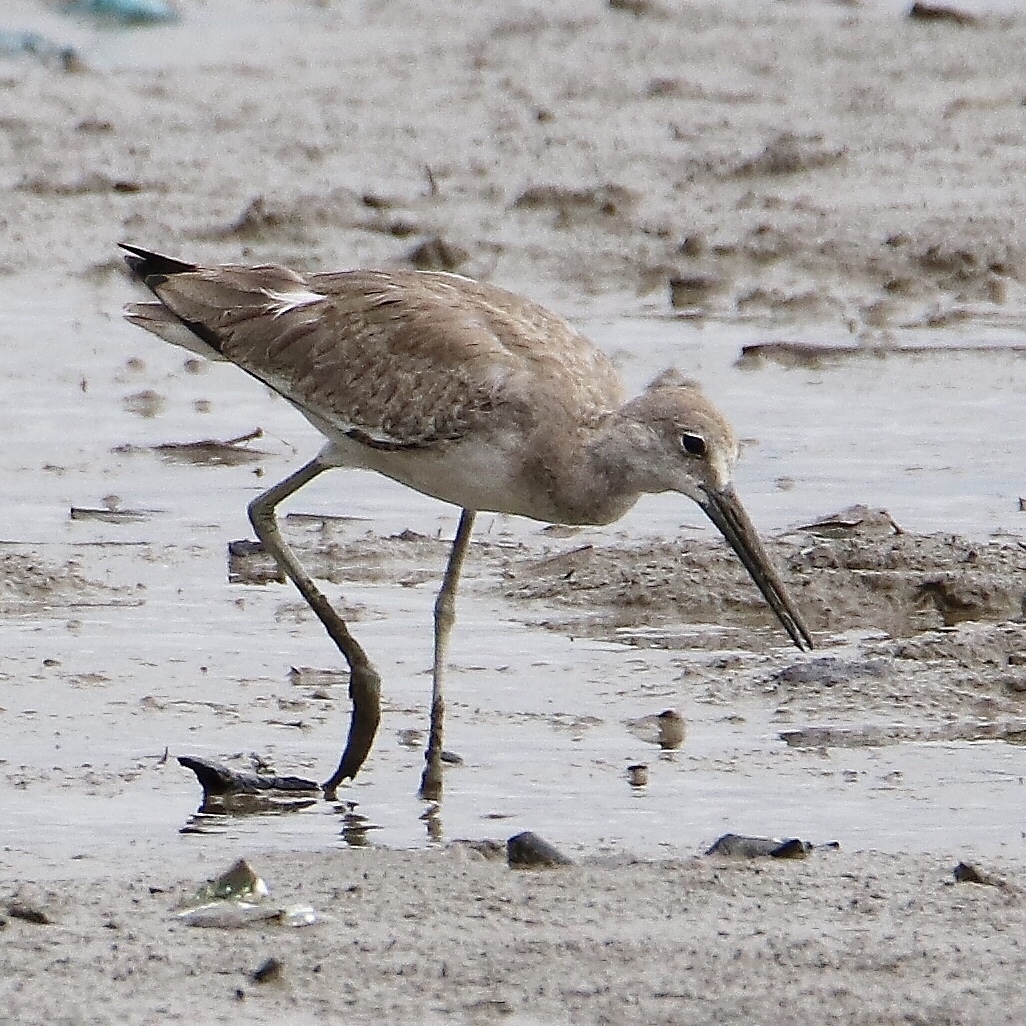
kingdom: Animalia
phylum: Chordata
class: Aves
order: Charadriiformes
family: Scolopacidae
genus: Tringa
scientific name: Tringa semipalmata
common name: Willet
